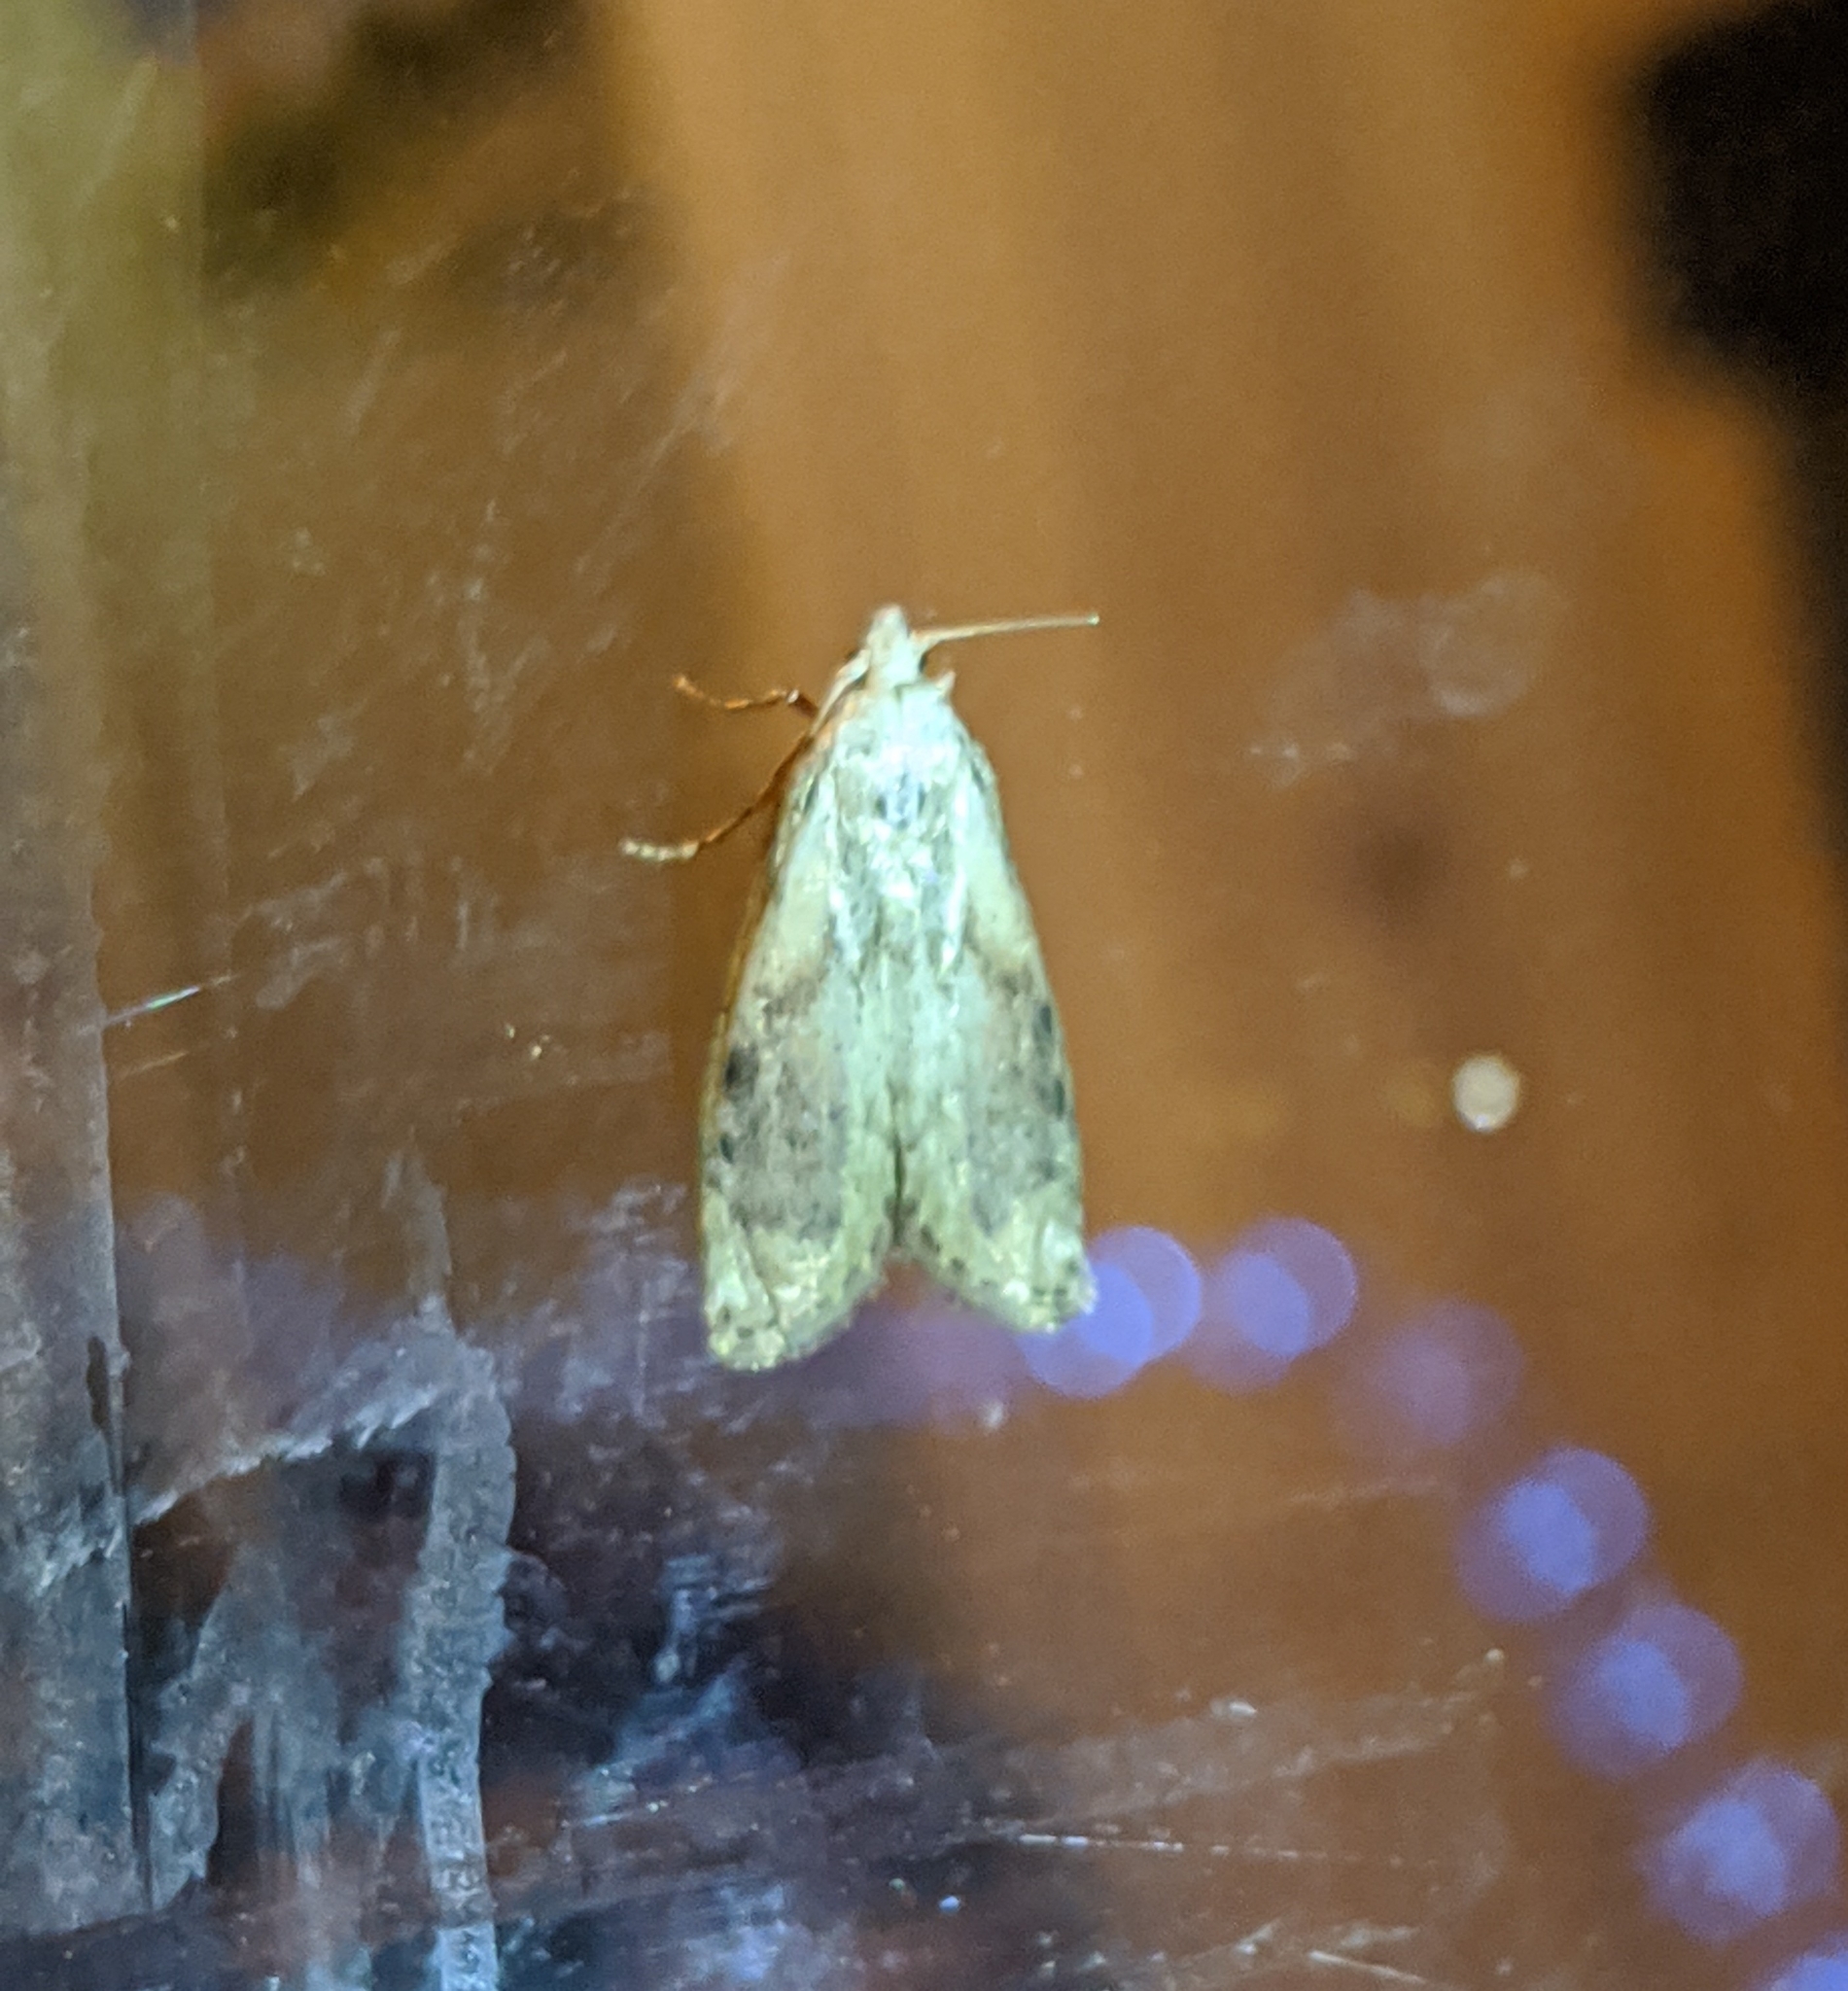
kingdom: Animalia
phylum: Arthropoda
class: Insecta
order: Lepidoptera
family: Pyralidae
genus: Aphomia
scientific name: Aphomia sociella
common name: Bee moth
